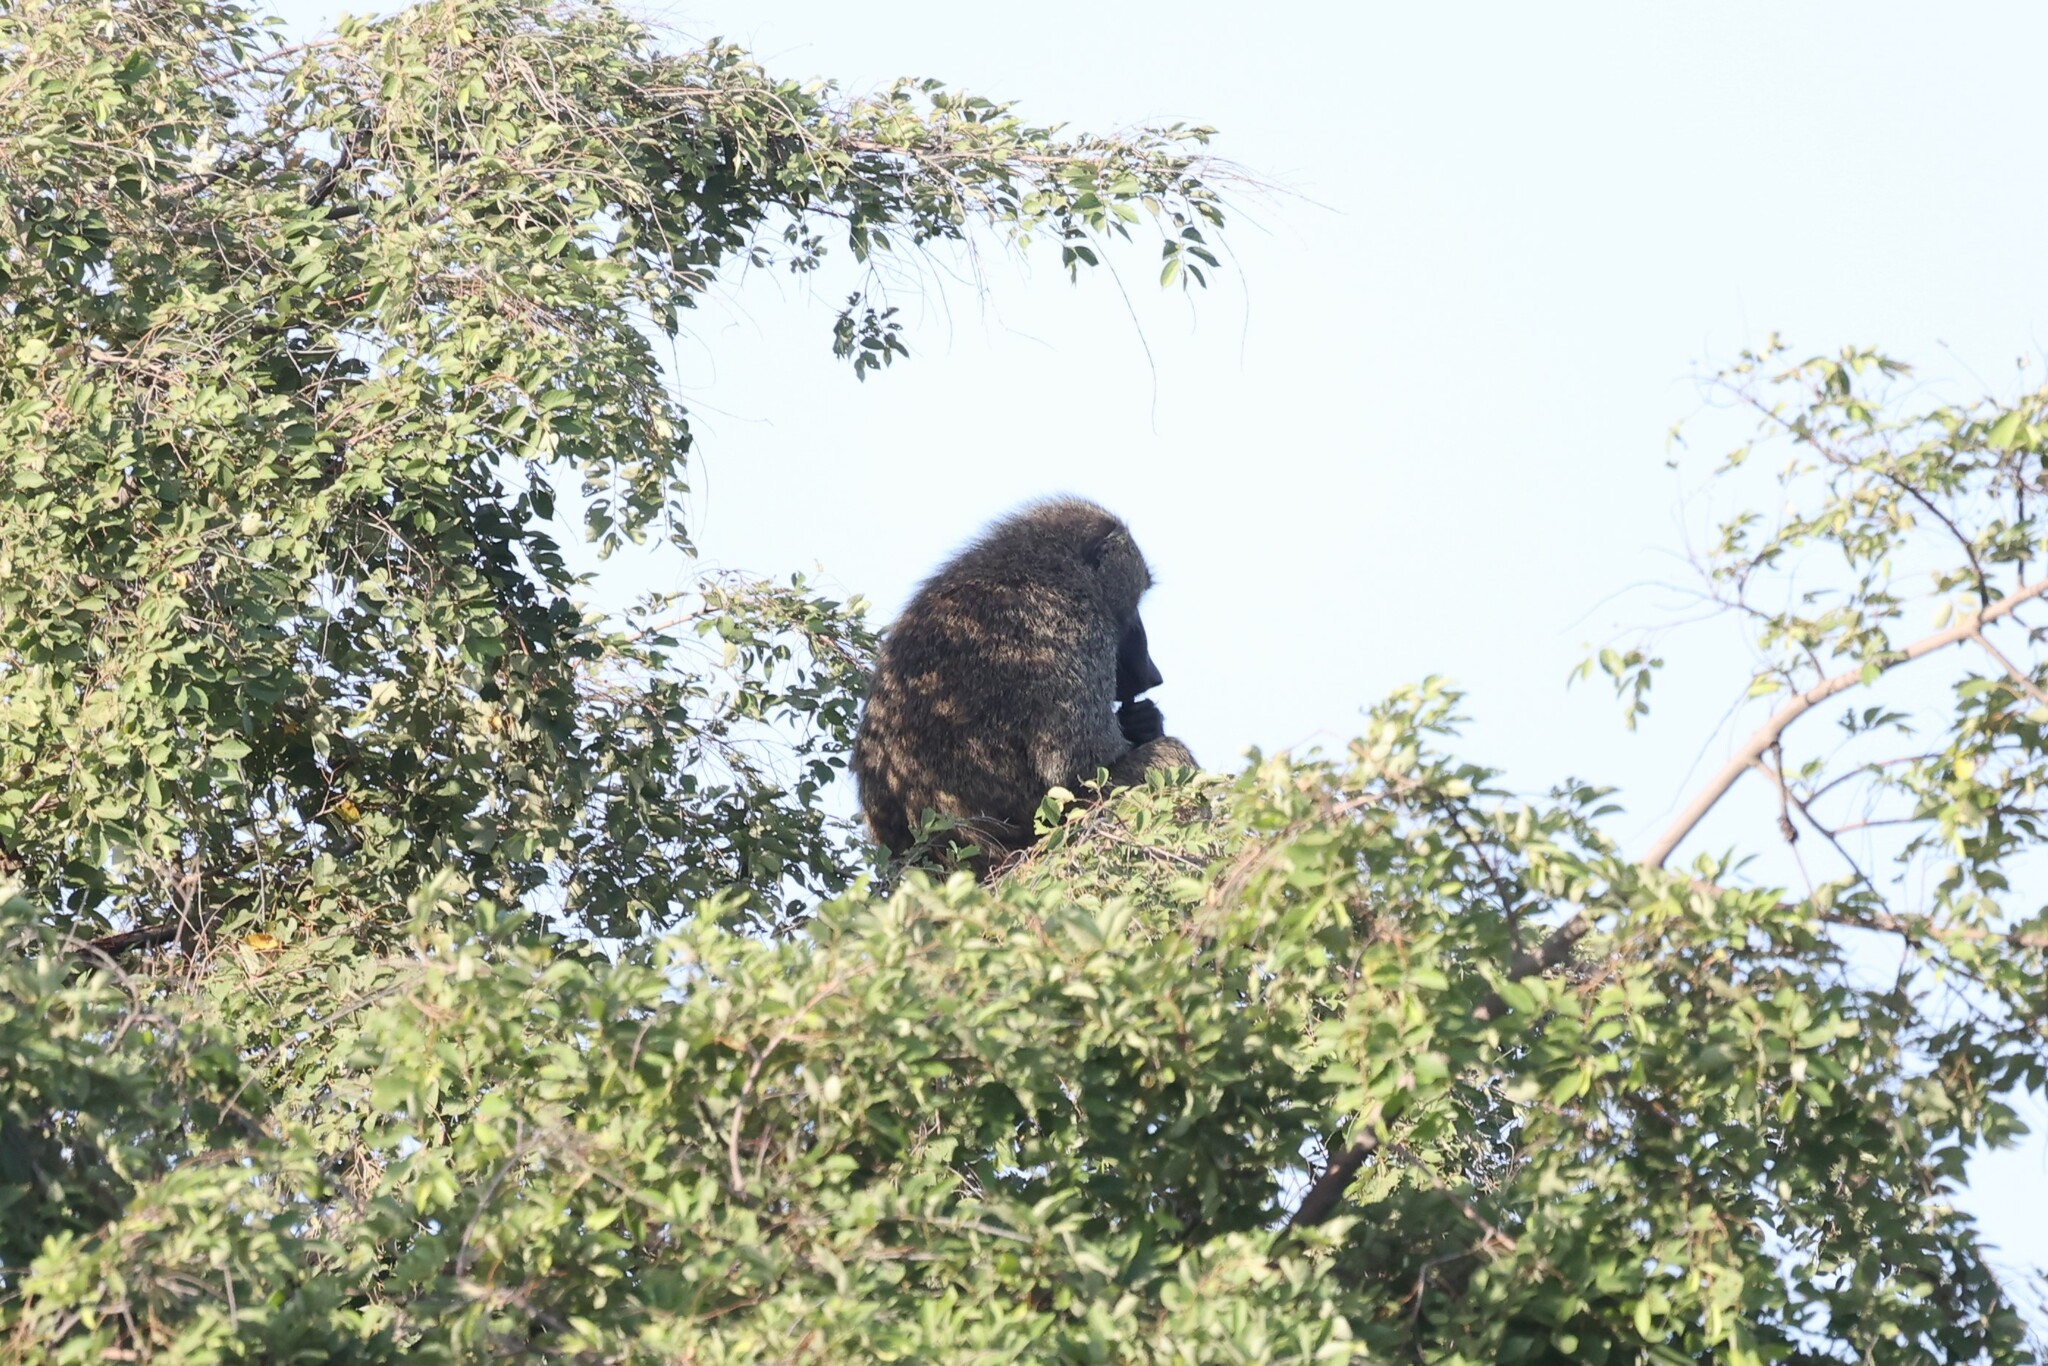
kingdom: Animalia
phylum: Chordata
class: Mammalia
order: Primates
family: Cercopithecidae
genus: Papio
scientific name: Papio anubis
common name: Olive baboon
